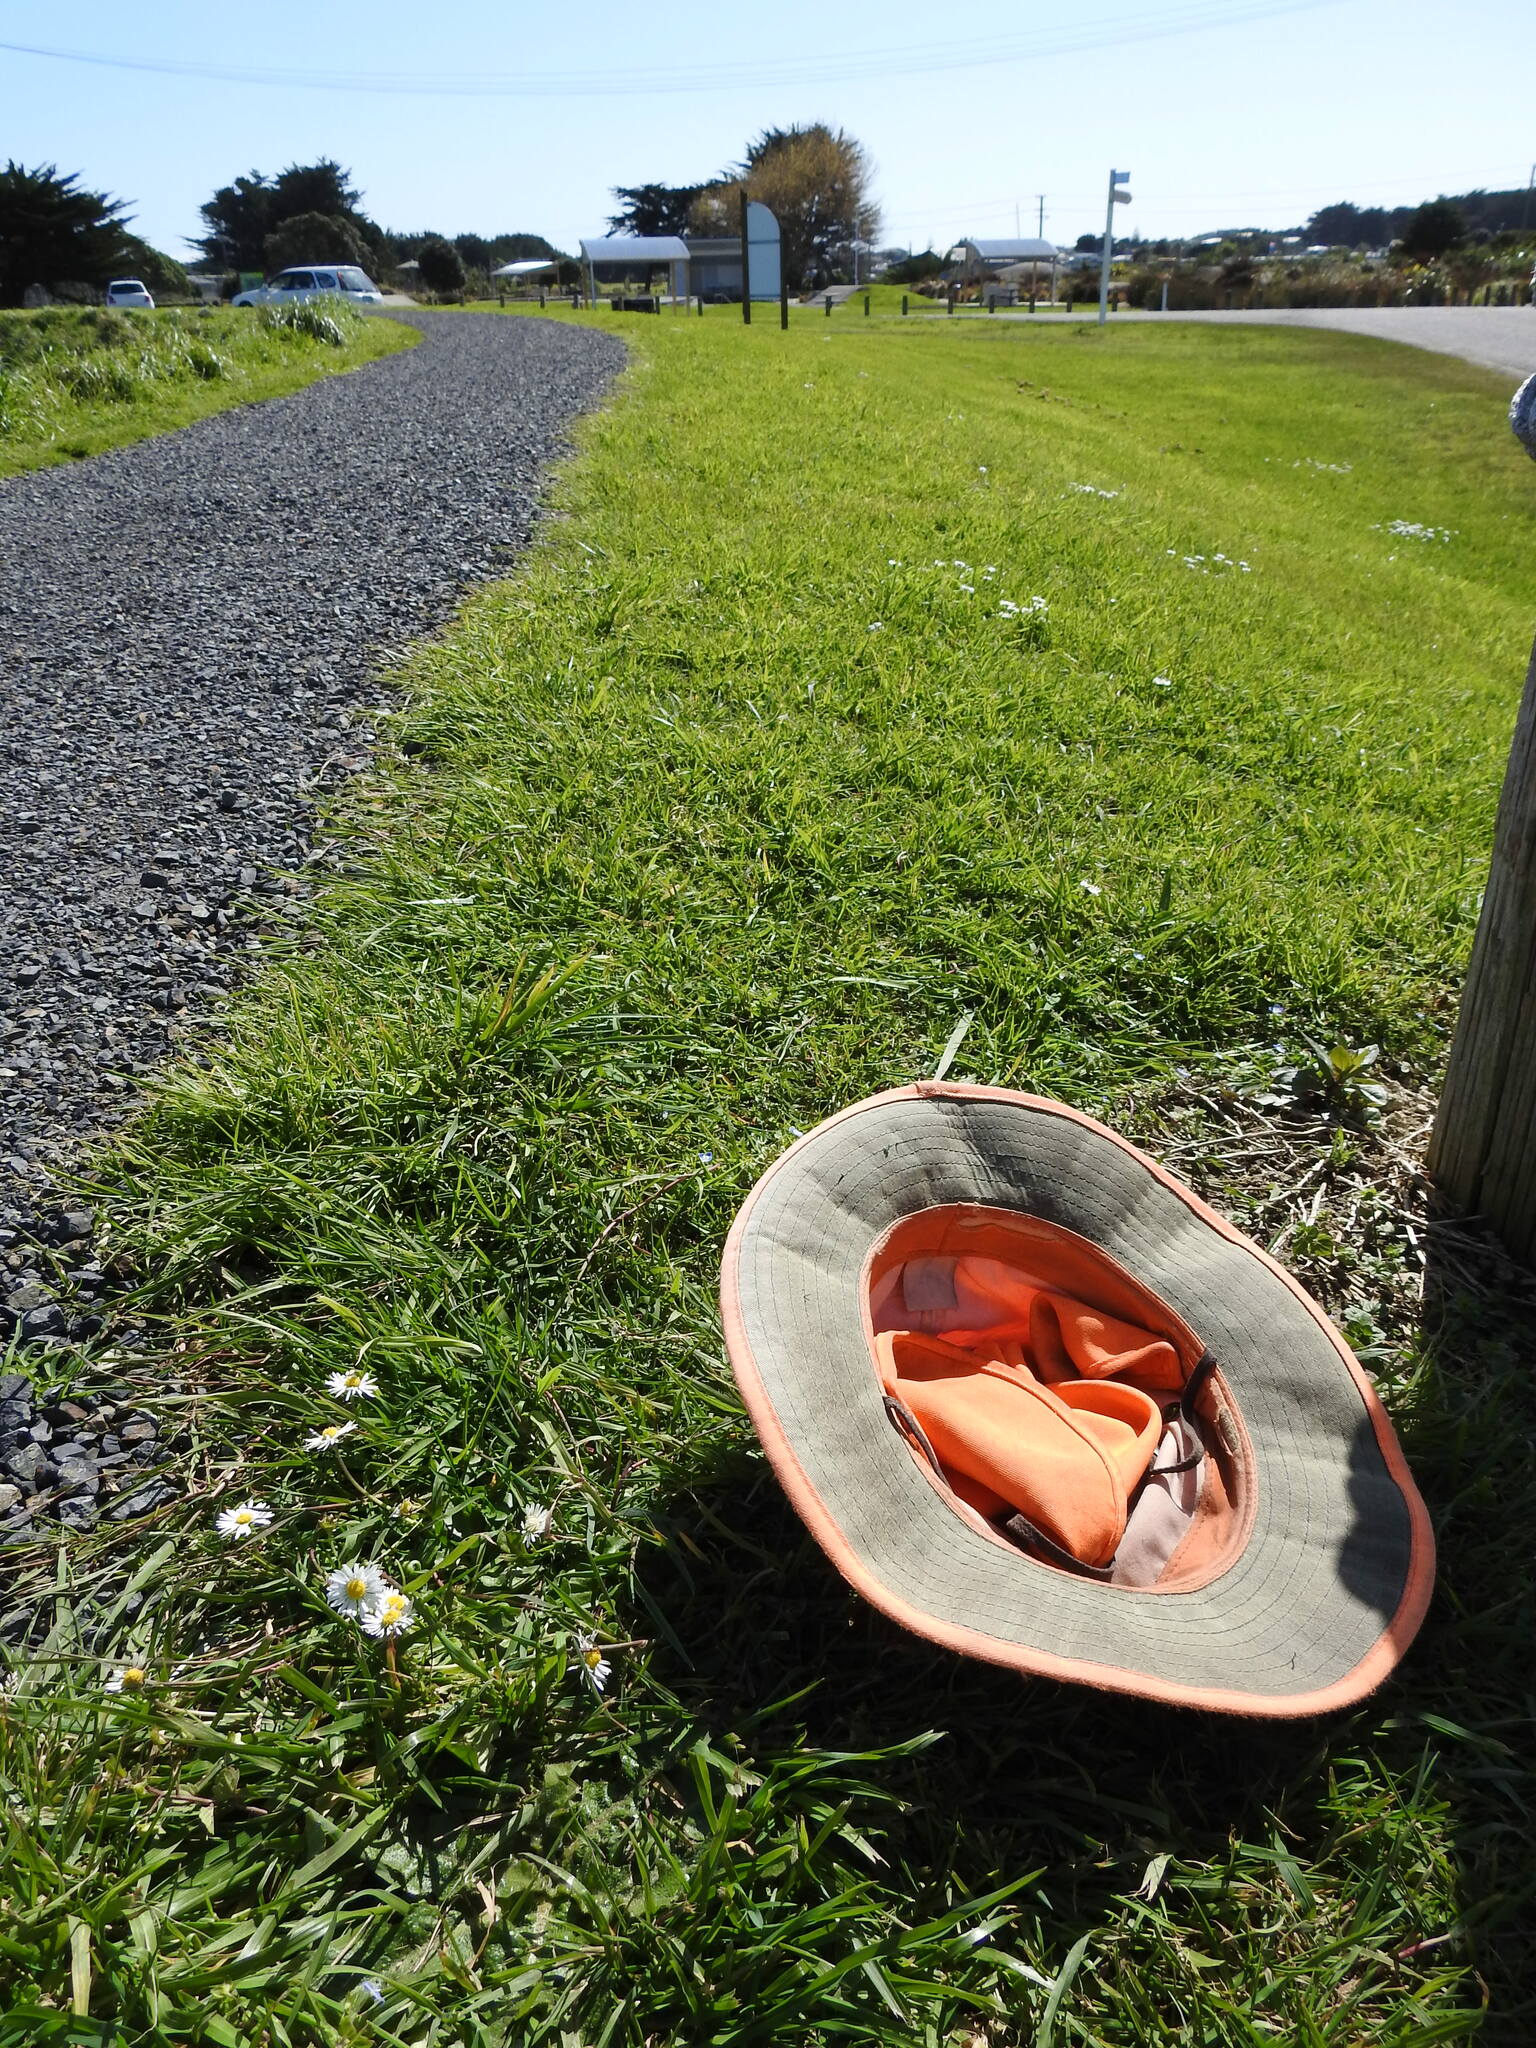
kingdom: Plantae
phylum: Tracheophyta
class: Magnoliopsida
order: Lamiales
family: Plantaginaceae
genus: Veronica
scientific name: Veronica persica
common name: Common field-speedwell
